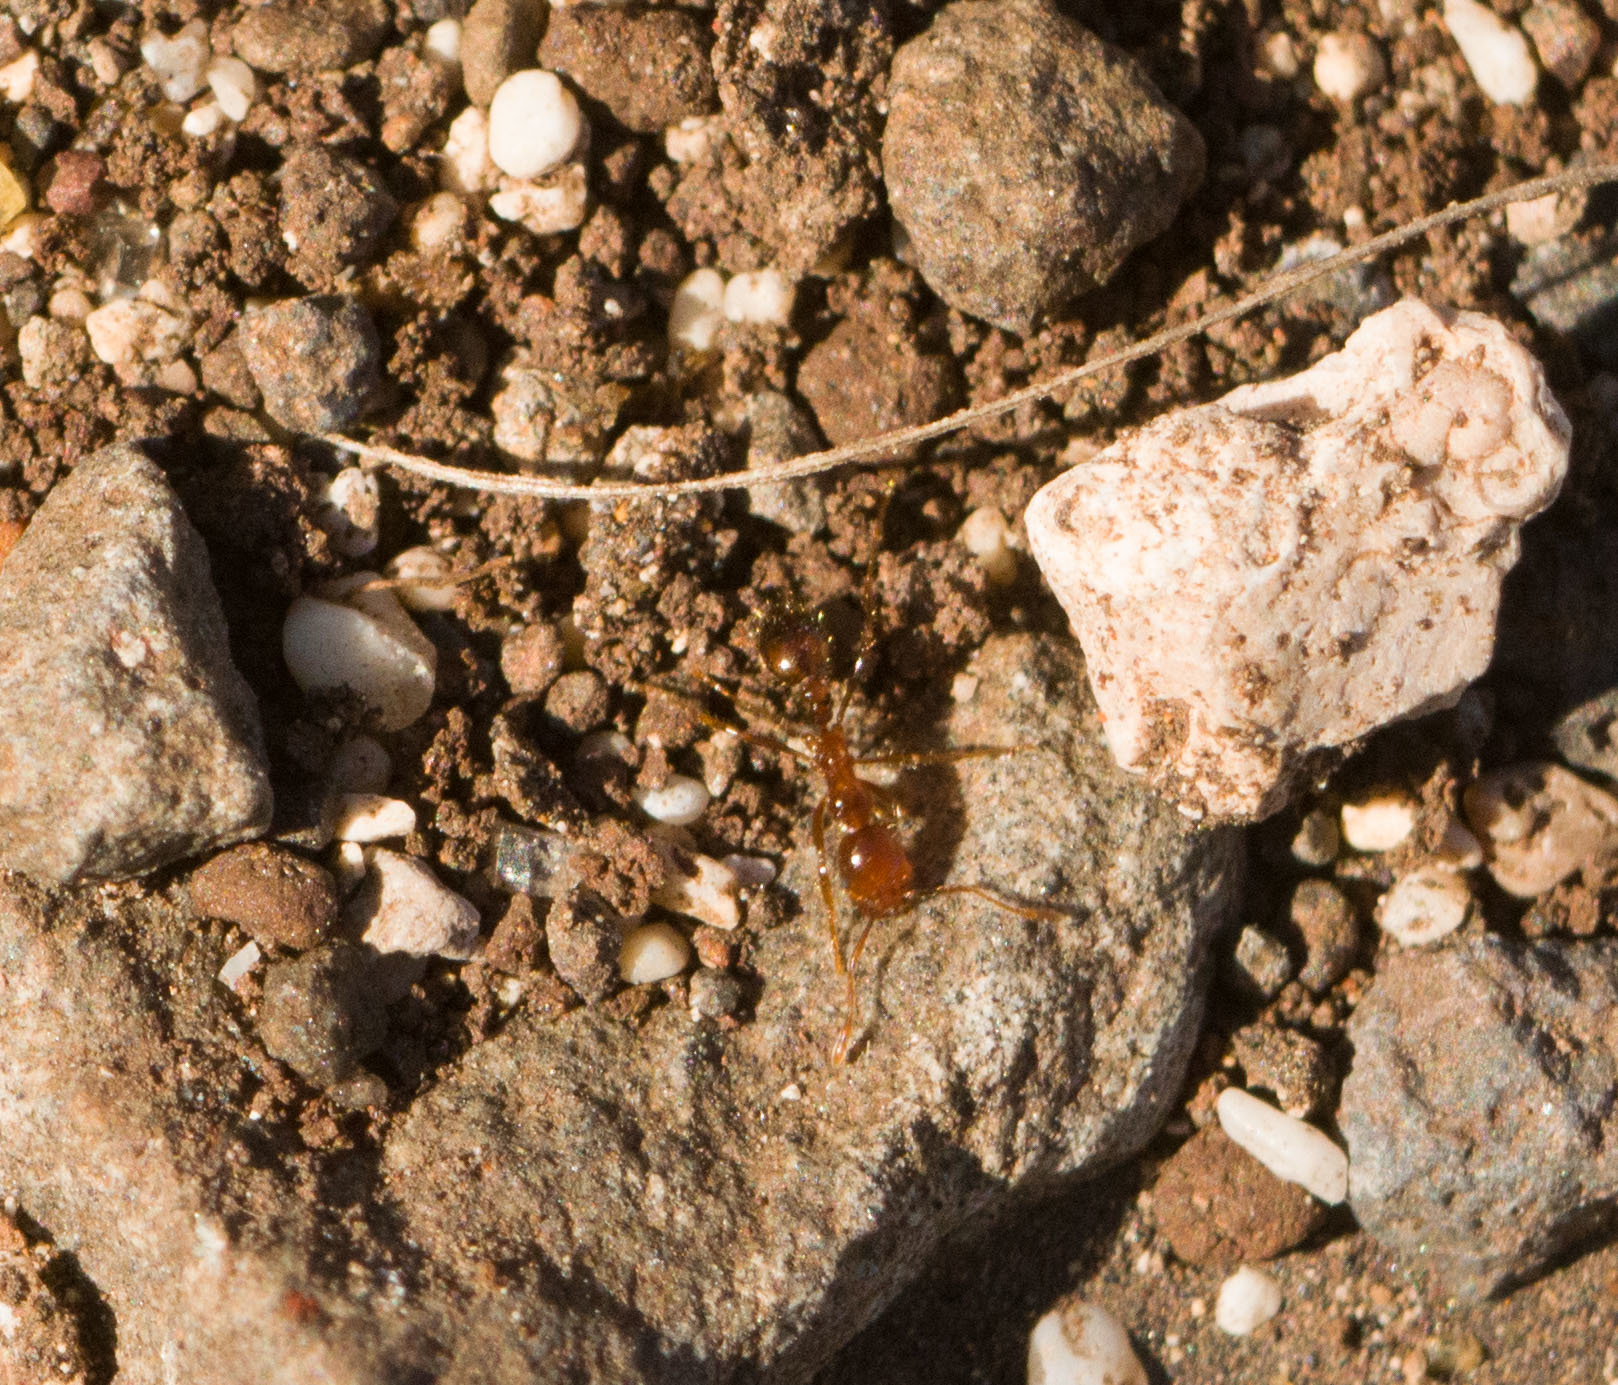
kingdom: Animalia
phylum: Arthropoda
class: Insecta
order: Hymenoptera
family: Formicidae
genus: Solenopsis
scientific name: Solenopsis geminata
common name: Tropical fire ant
